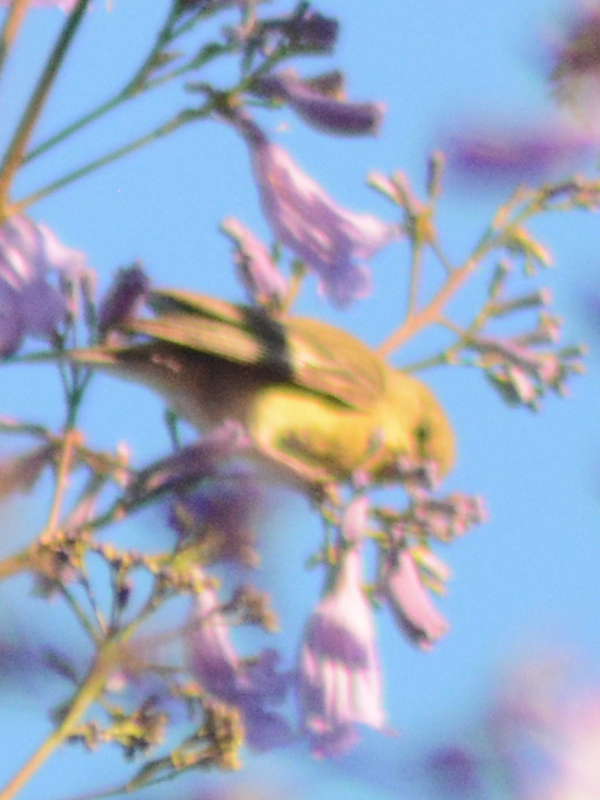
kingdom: Animalia
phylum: Chordata
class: Aves
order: Passeriformes
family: Fringillidae
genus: Spinus
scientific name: Spinus psaltria
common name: Lesser goldfinch
